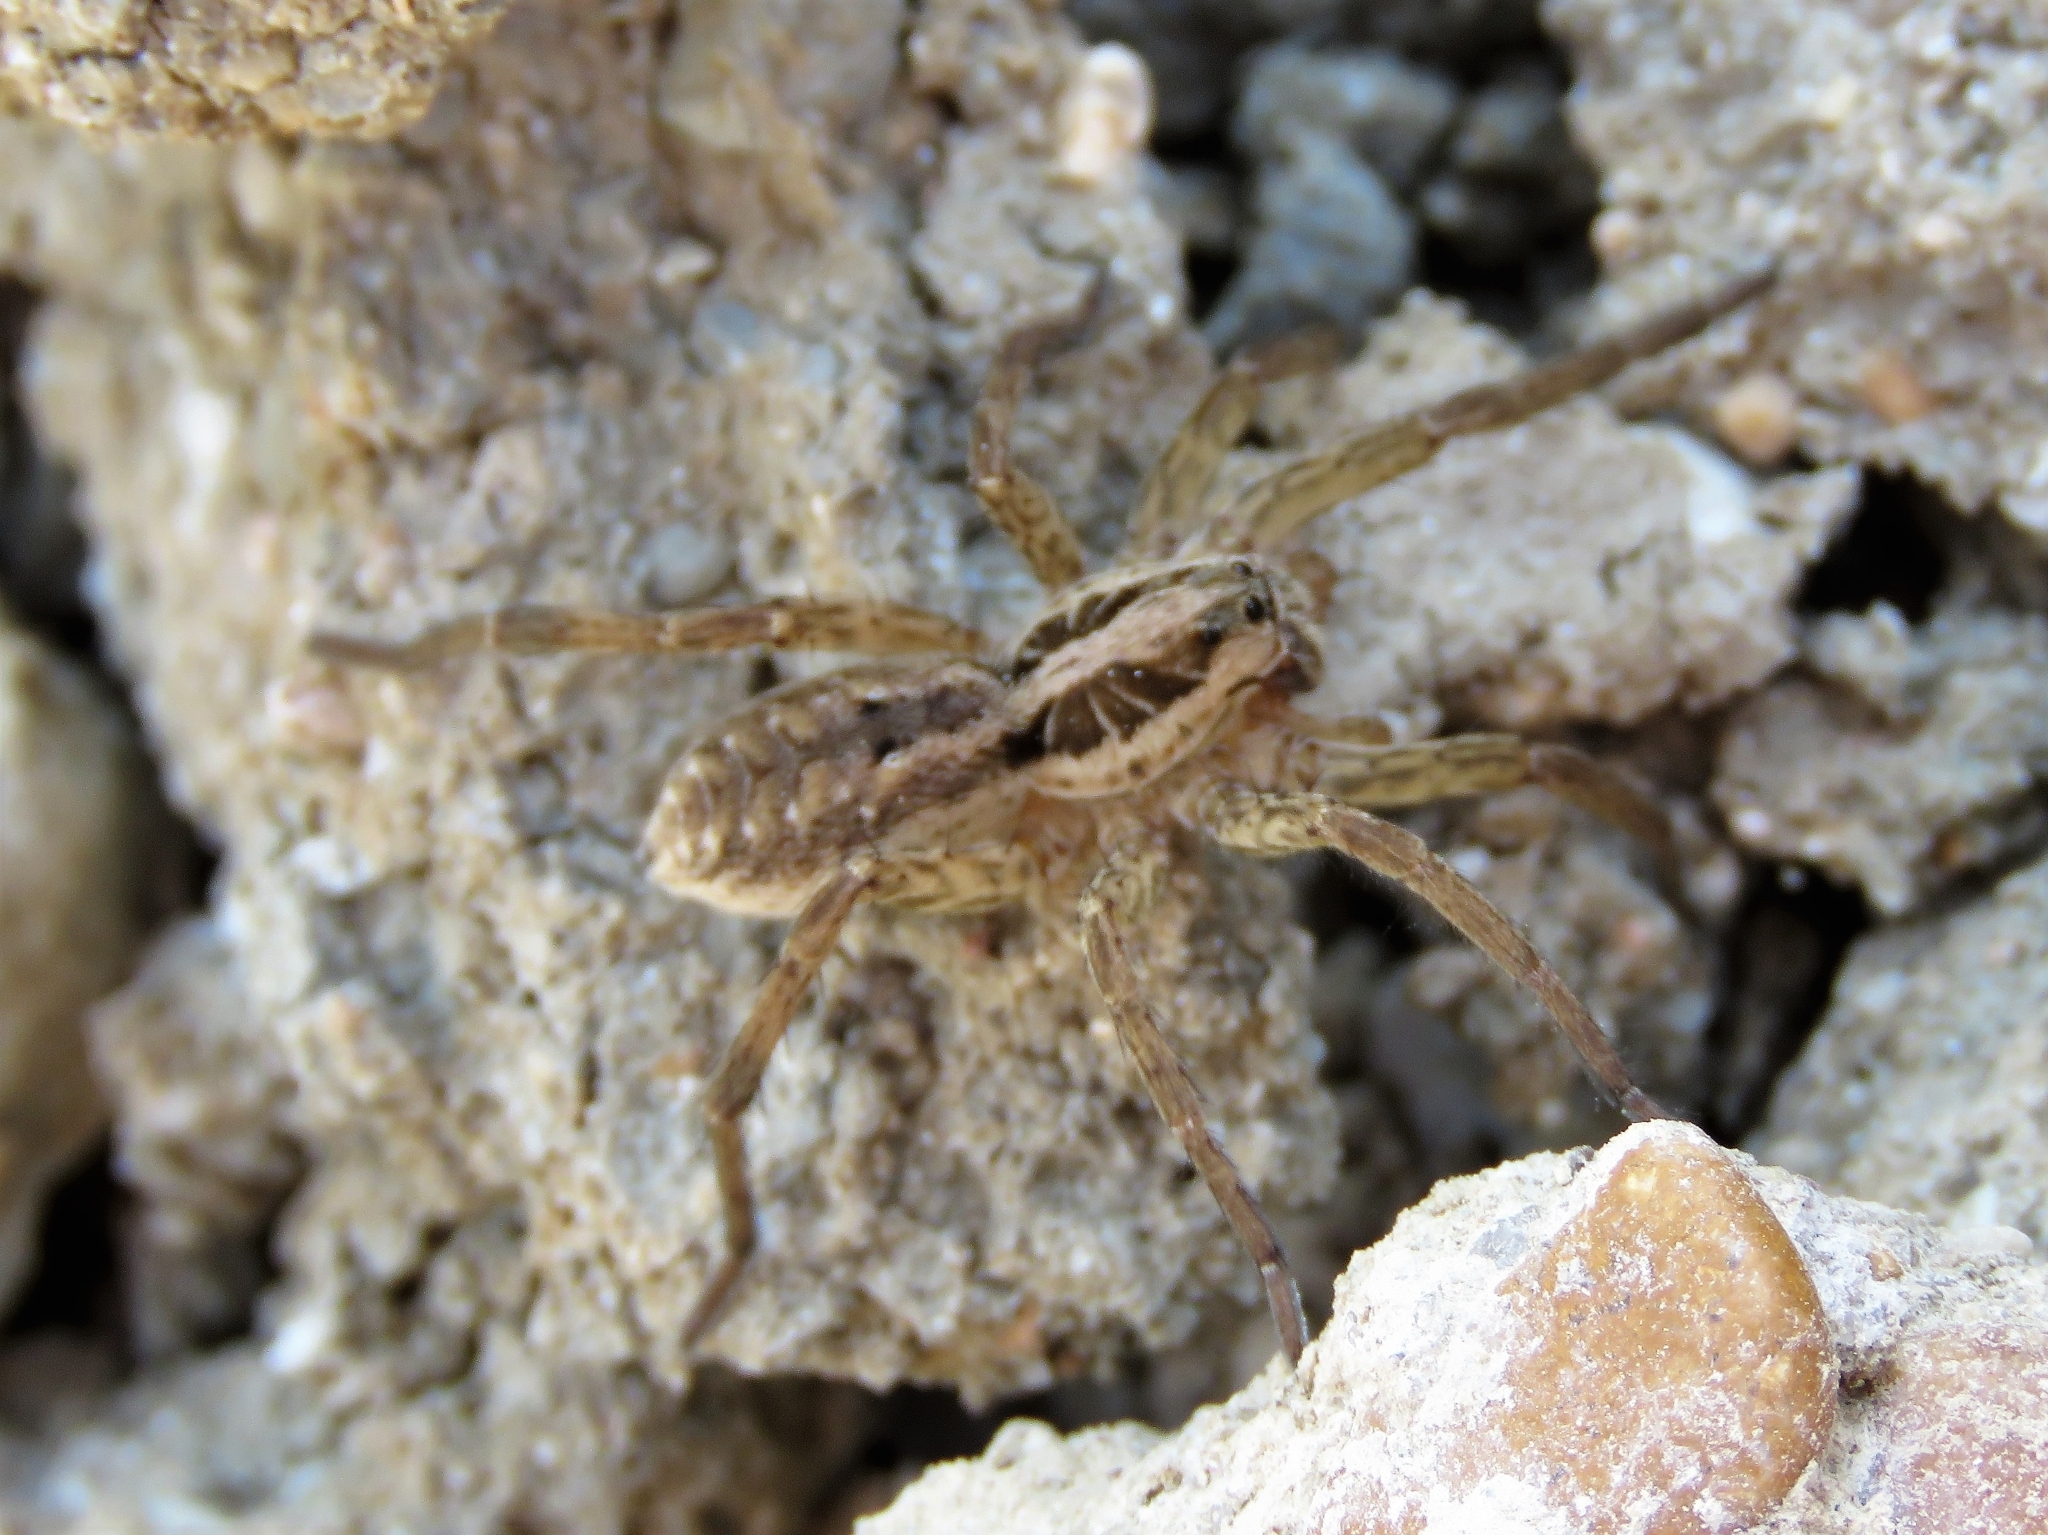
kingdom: Animalia
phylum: Arthropoda
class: Arachnida
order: Araneae
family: Lycosidae
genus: Hogna
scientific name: Hogna radiata
